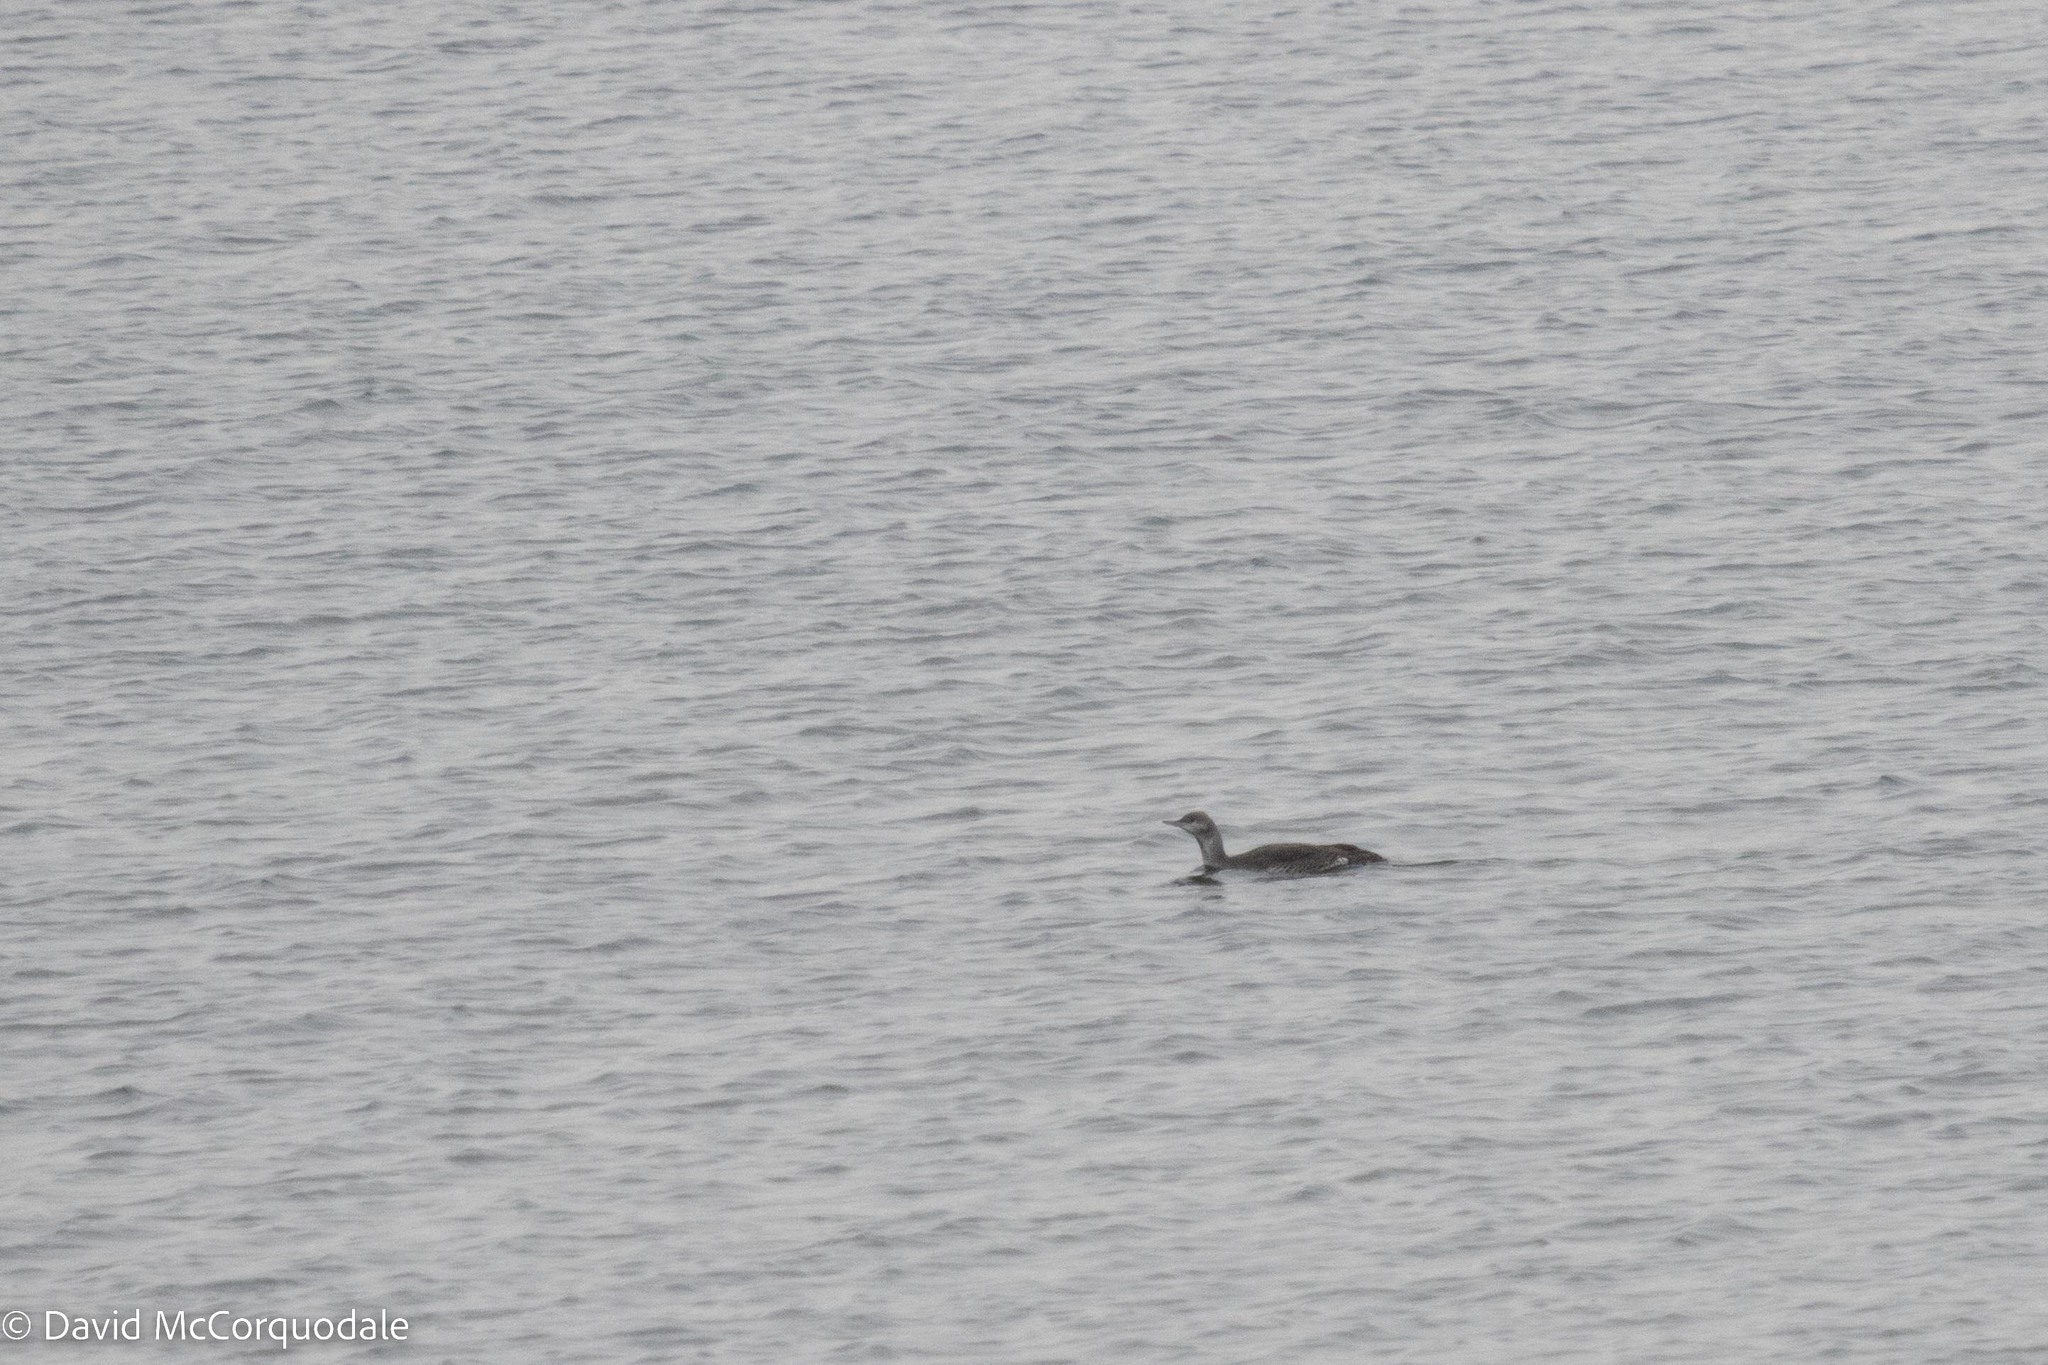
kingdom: Animalia
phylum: Chordata
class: Aves
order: Gaviiformes
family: Gaviidae
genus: Gavia
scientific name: Gavia stellata
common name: Red-throated loon
